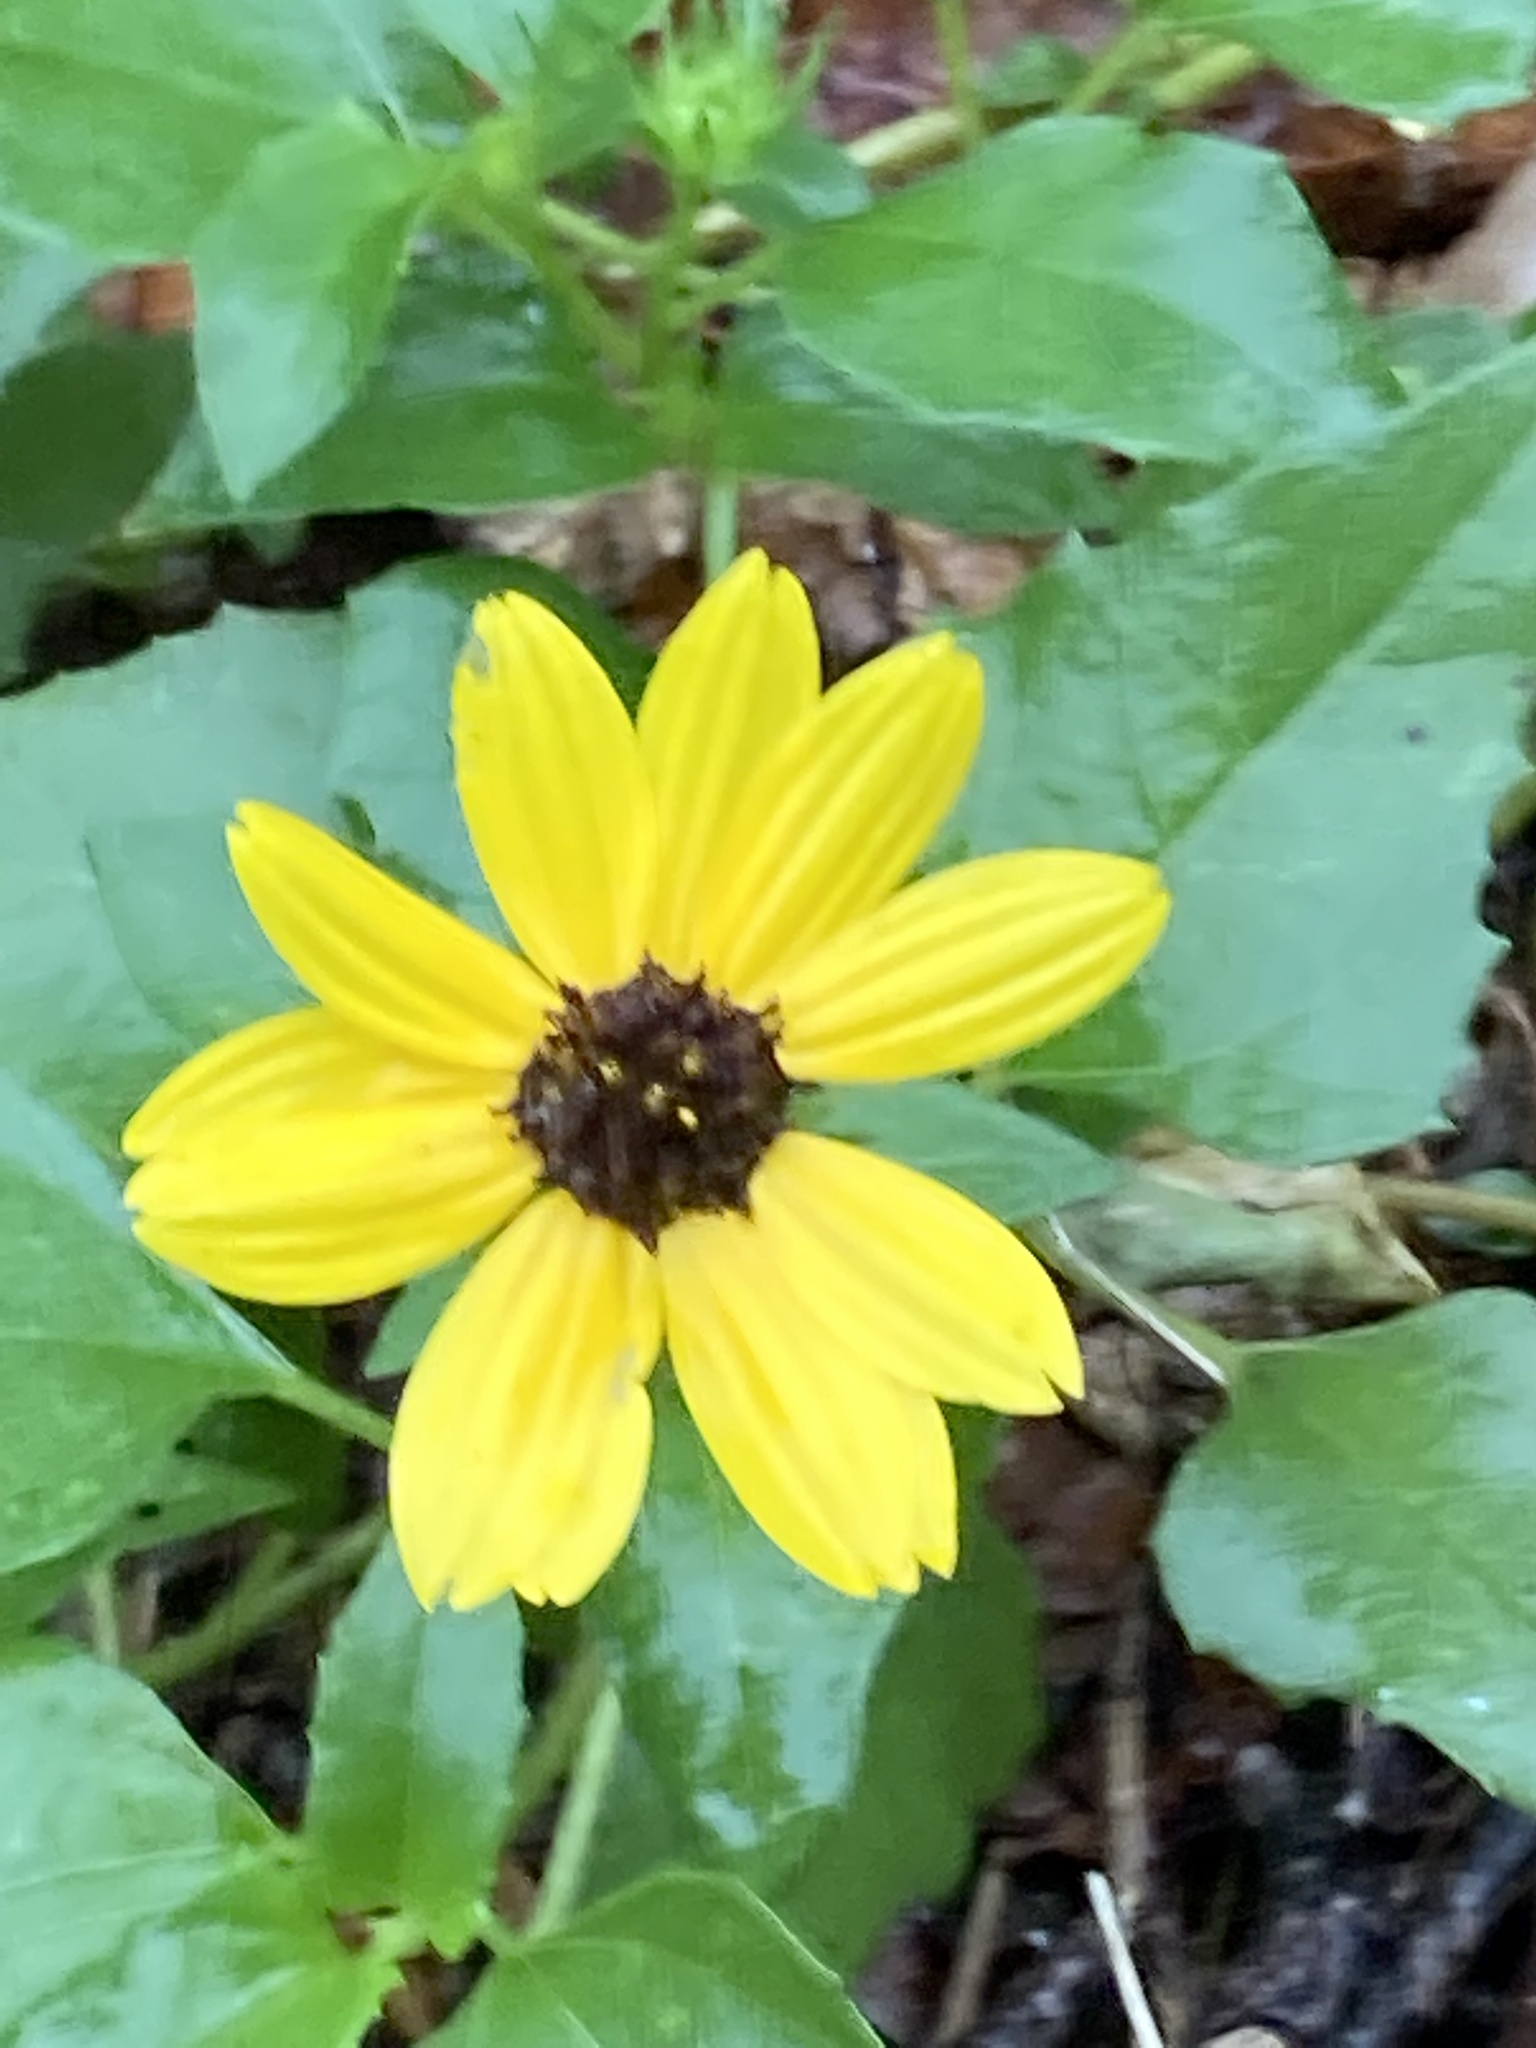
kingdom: Plantae
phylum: Tracheophyta
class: Magnoliopsida
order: Asterales
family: Asteraceae
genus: Helianthus
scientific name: Helianthus debilis
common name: Weak sunflower
